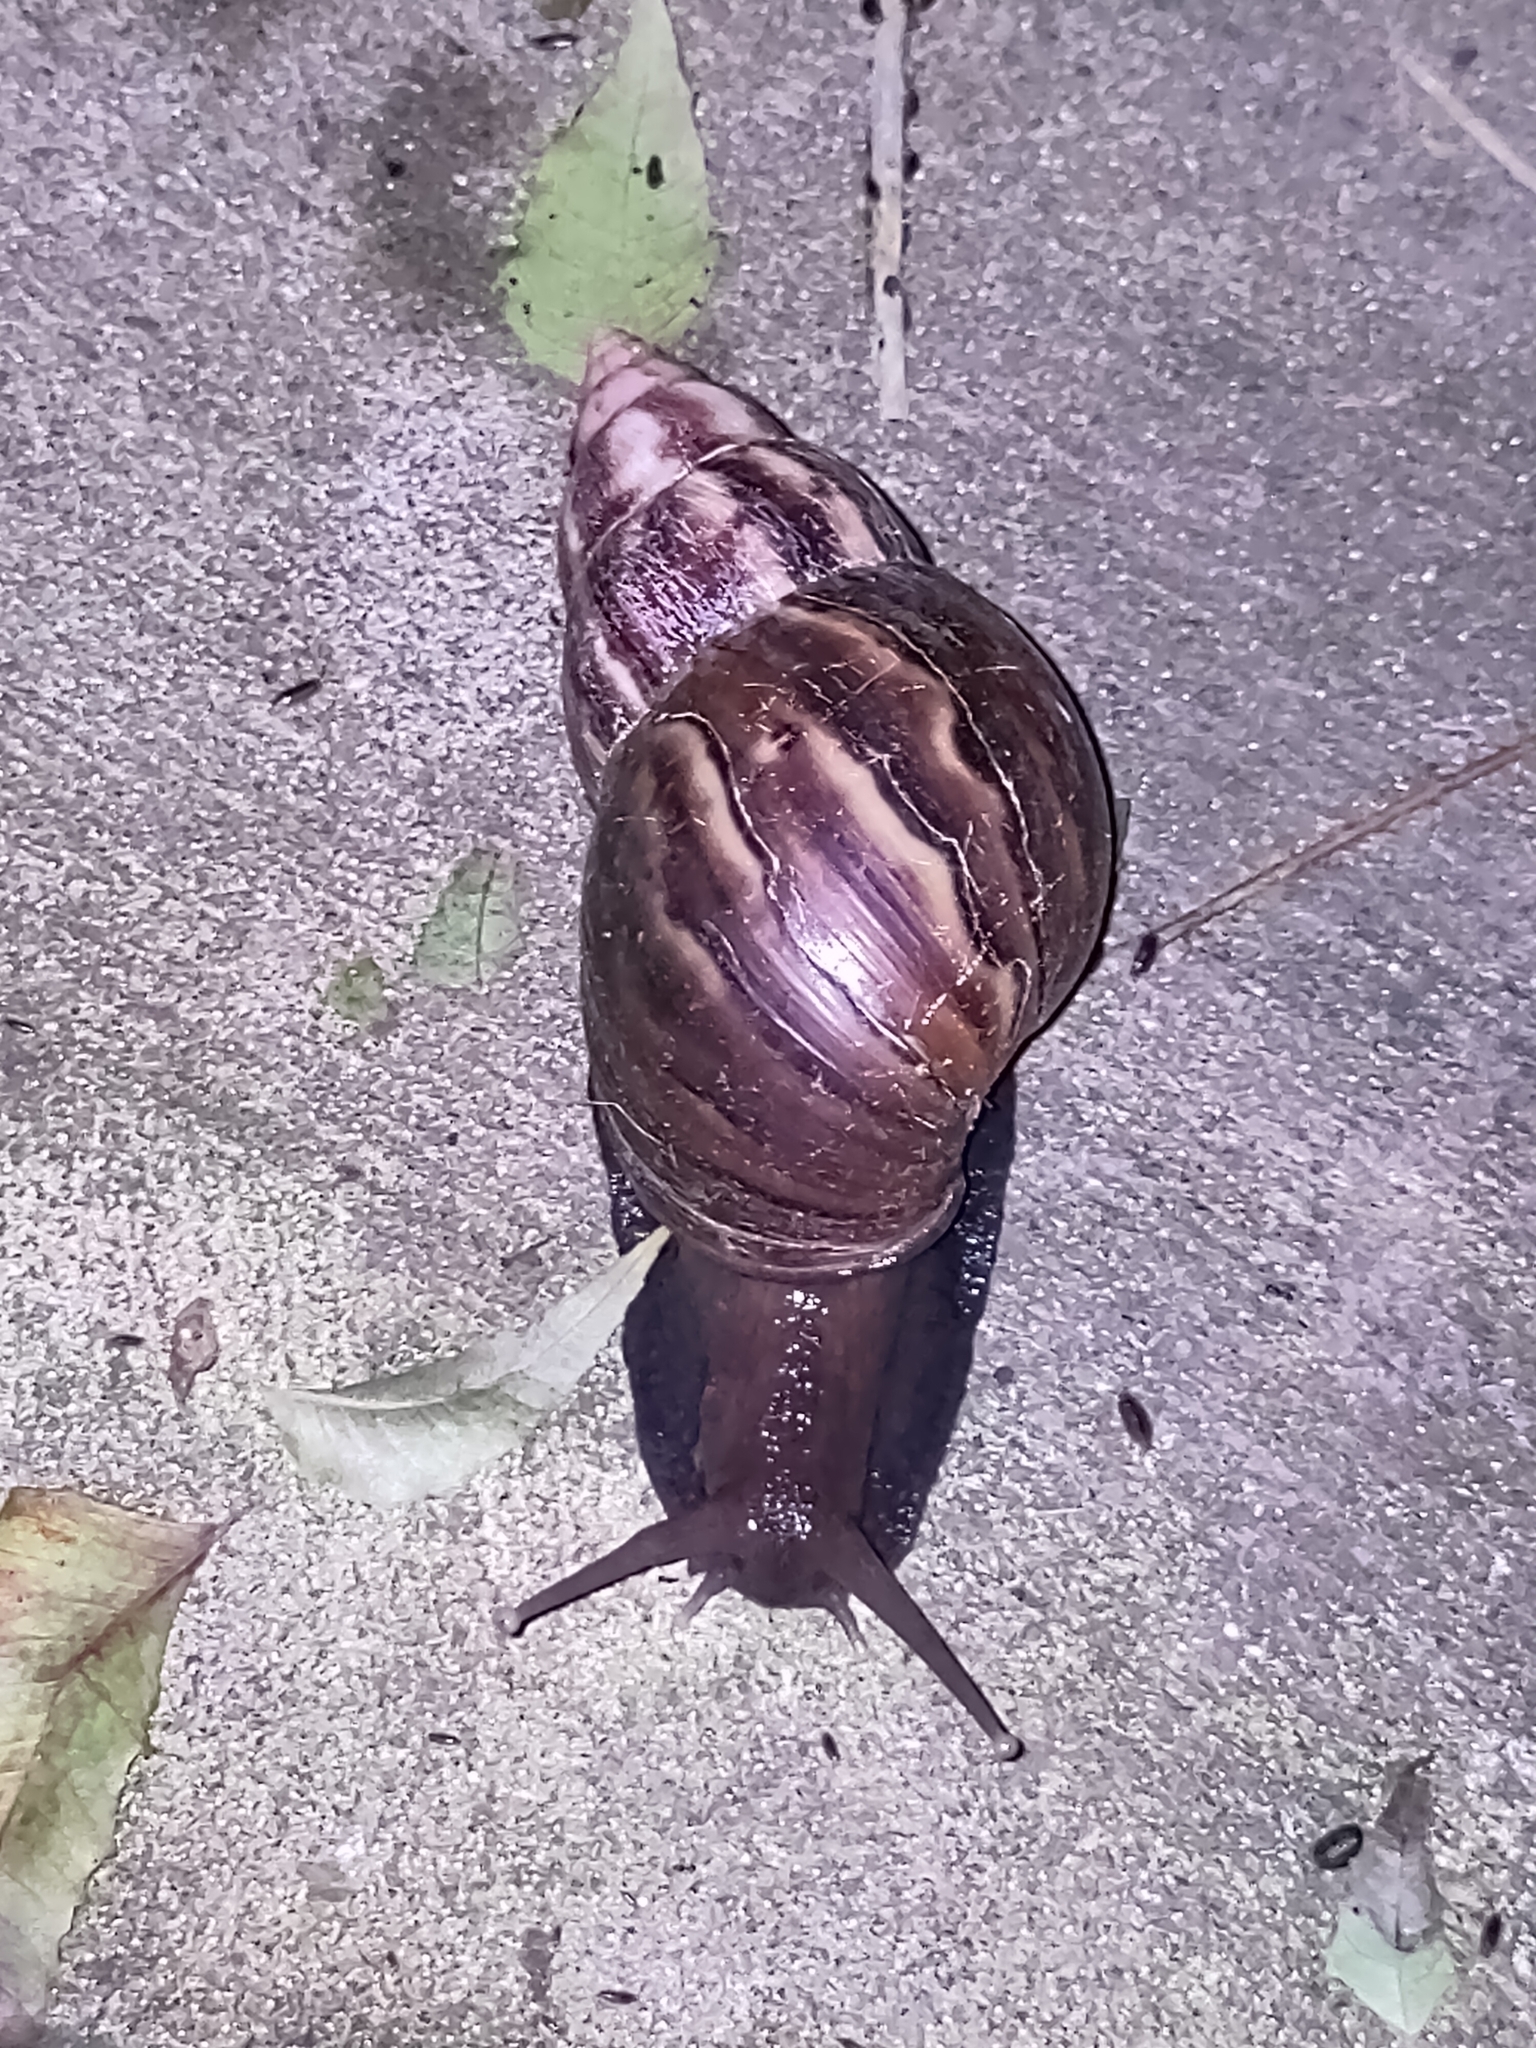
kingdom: Animalia
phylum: Mollusca
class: Gastropoda
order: Stylommatophora
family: Achatinidae
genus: Lissachatina
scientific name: Lissachatina fulica
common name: Giant african snail
